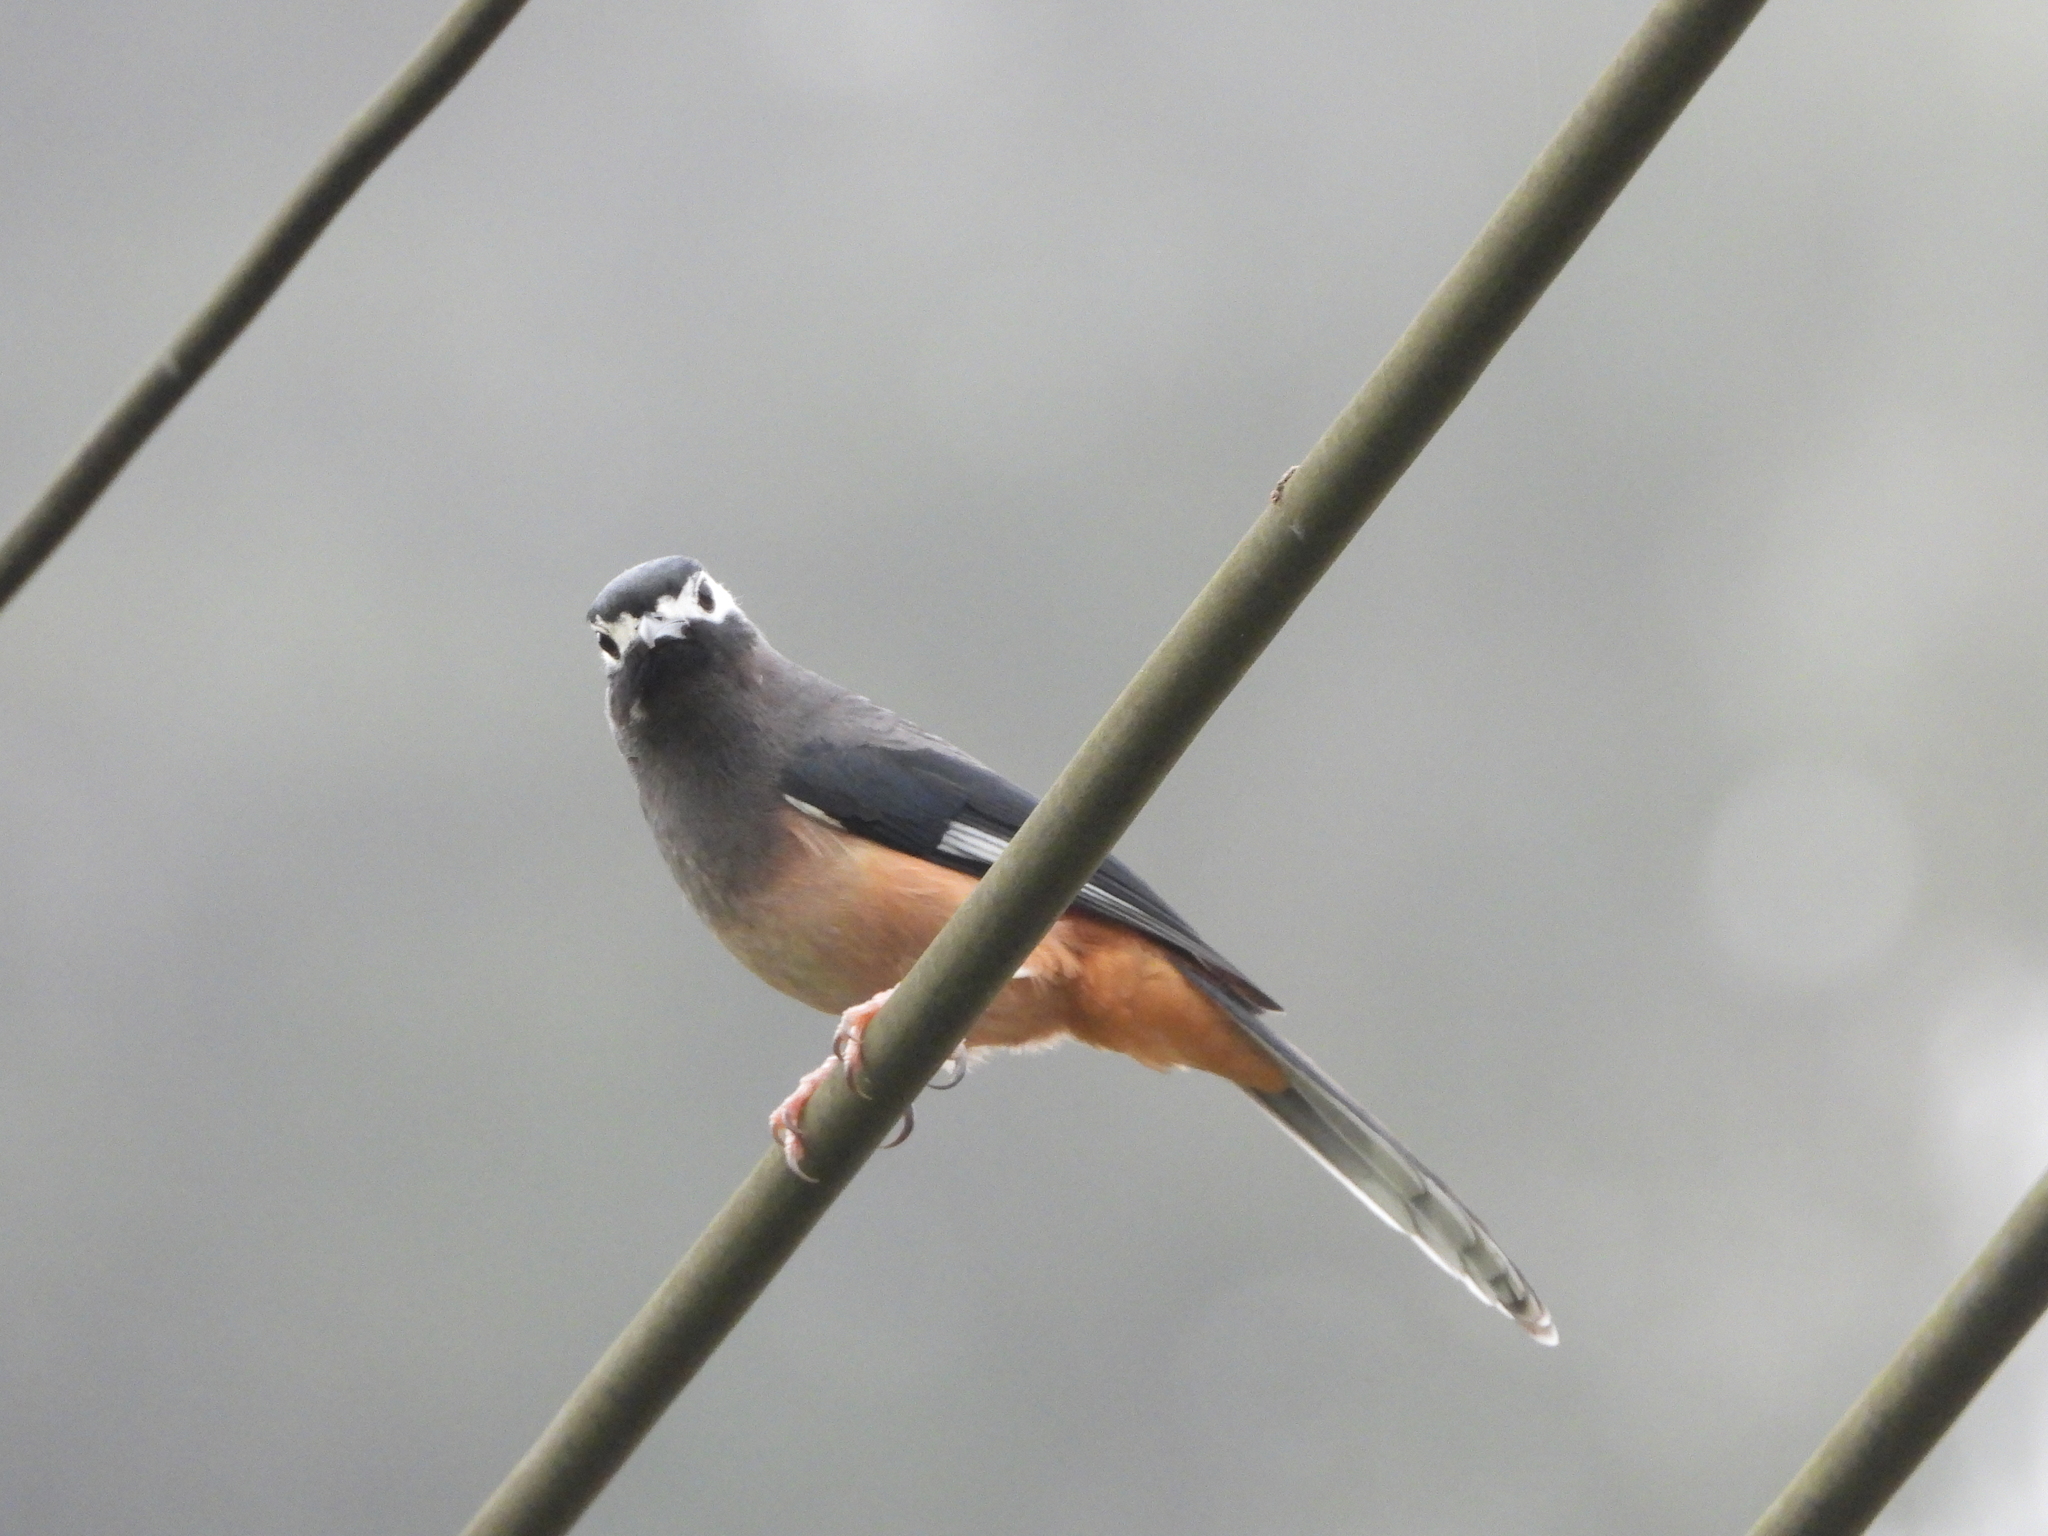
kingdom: Animalia
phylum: Chordata
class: Aves
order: Passeriformes
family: Leiothrichidae
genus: Heterophasia
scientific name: Heterophasia auricularis
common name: White-eared sibia
